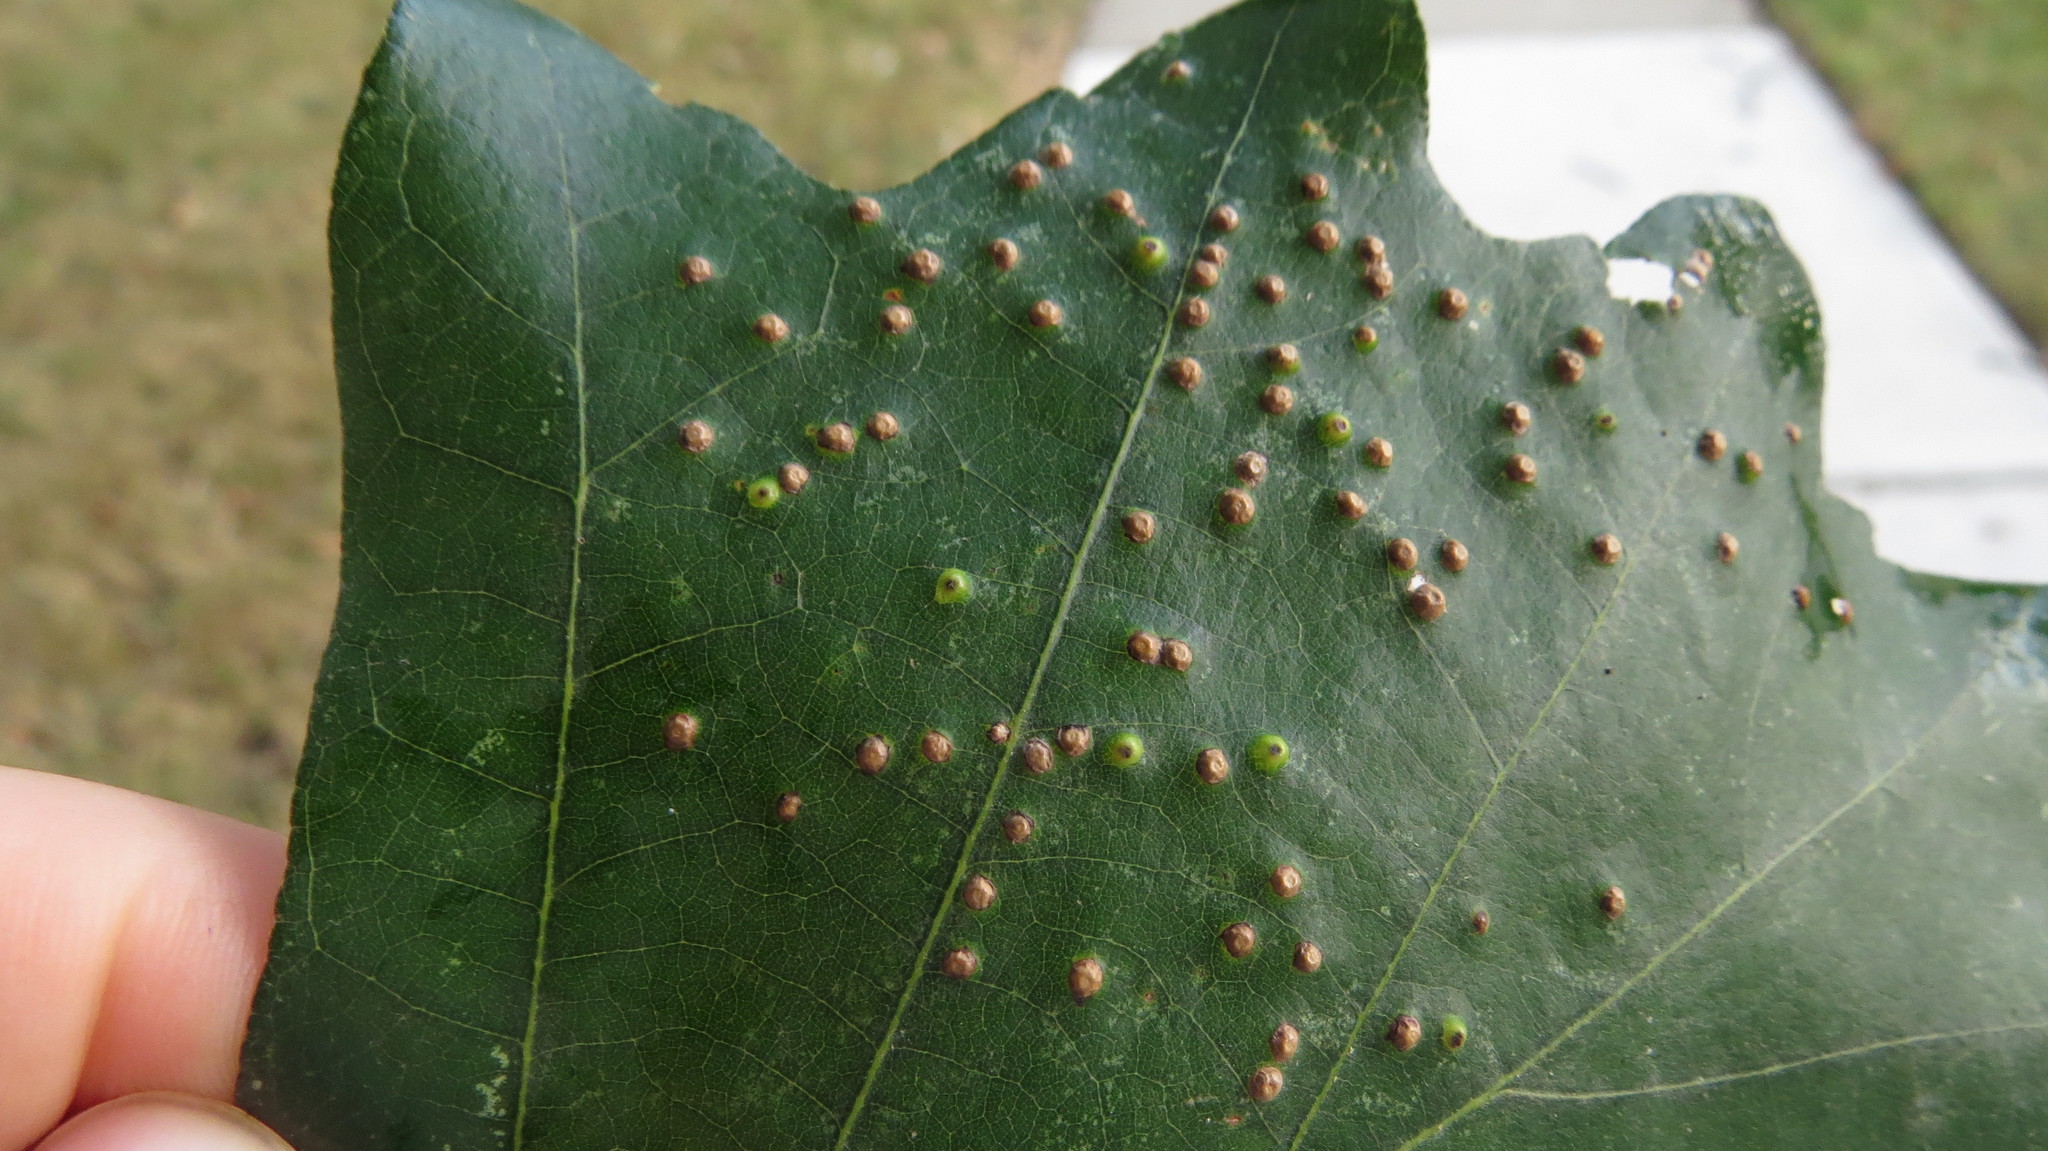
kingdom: Animalia
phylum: Arthropoda
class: Insecta
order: Hymenoptera
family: Cynipidae
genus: Neuroterus
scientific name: Neuroterus saltarius
